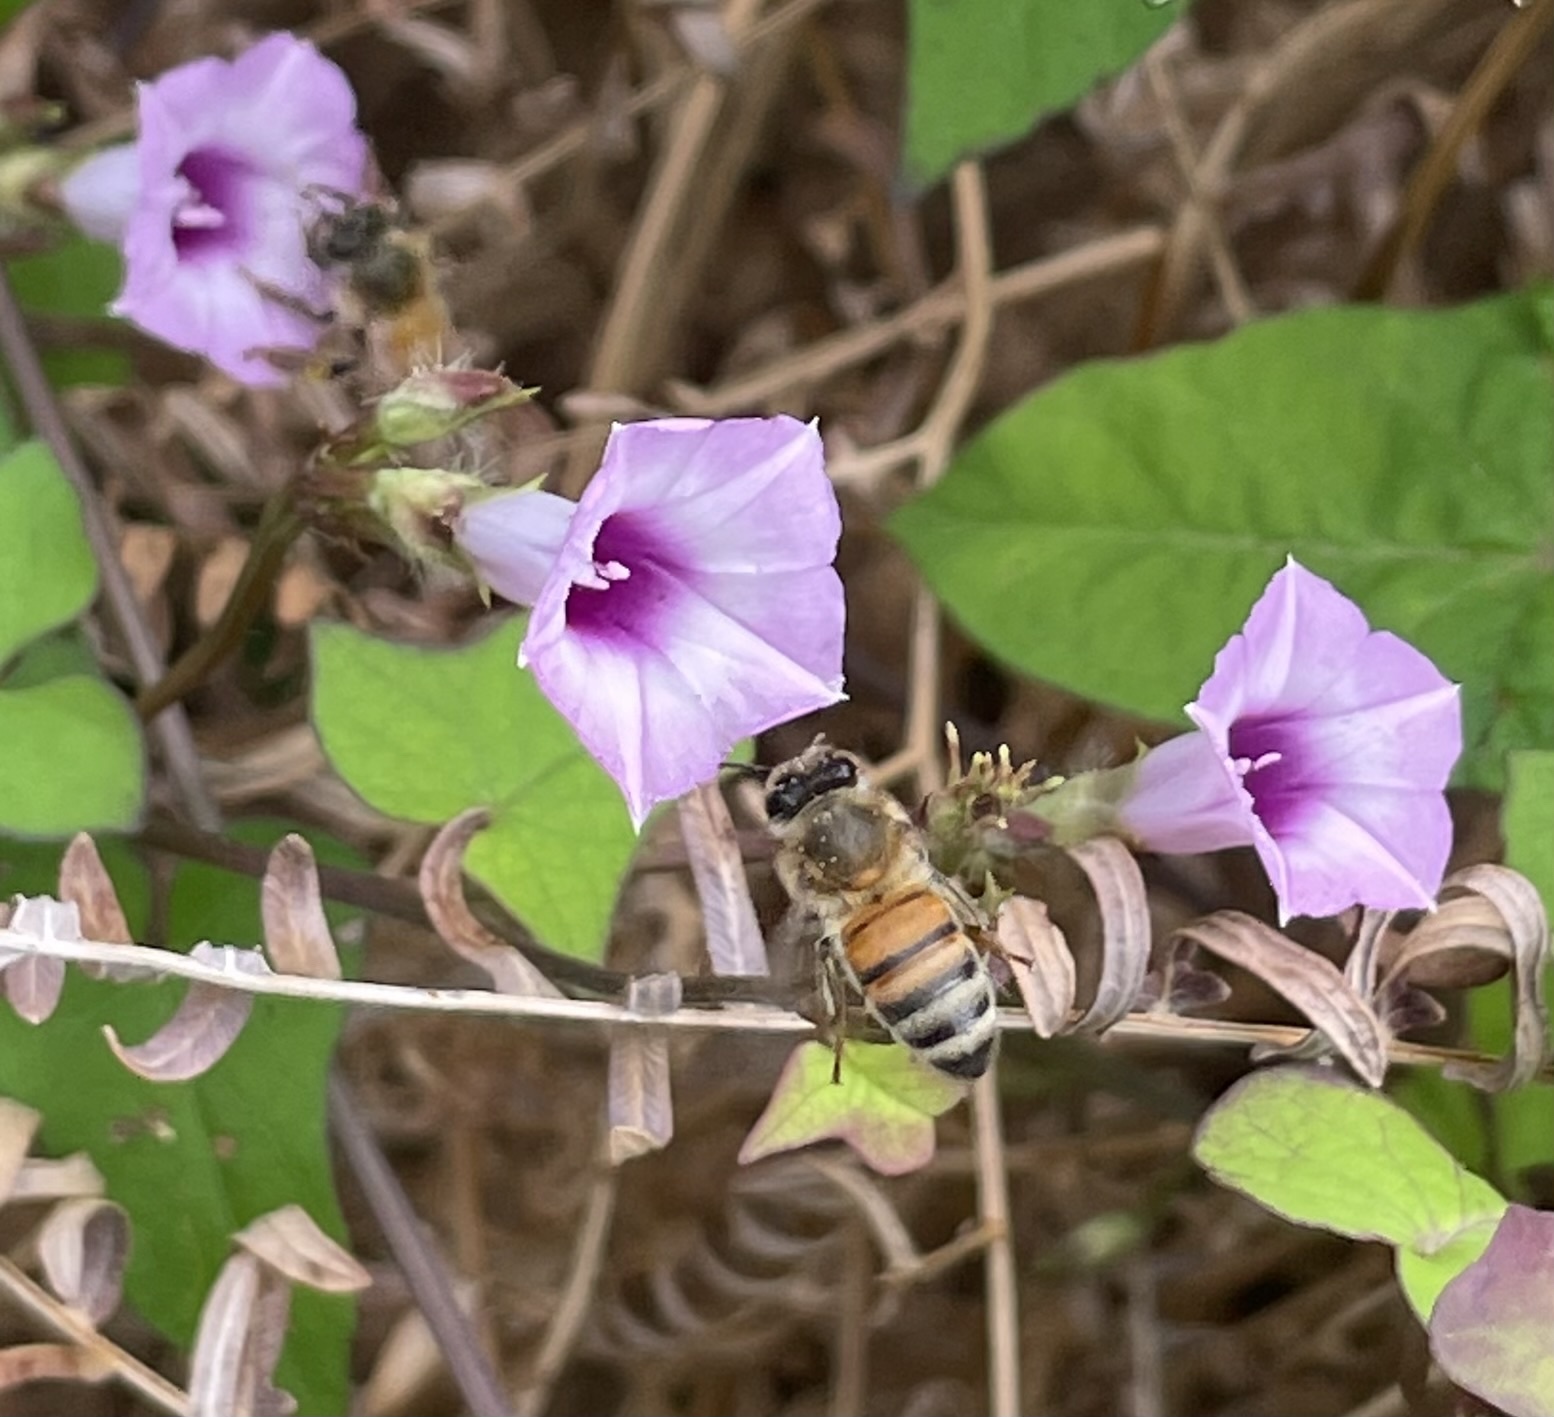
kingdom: Animalia
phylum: Arthropoda
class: Insecta
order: Hymenoptera
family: Apidae
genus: Apis
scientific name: Apis mellifera
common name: Honey bee
